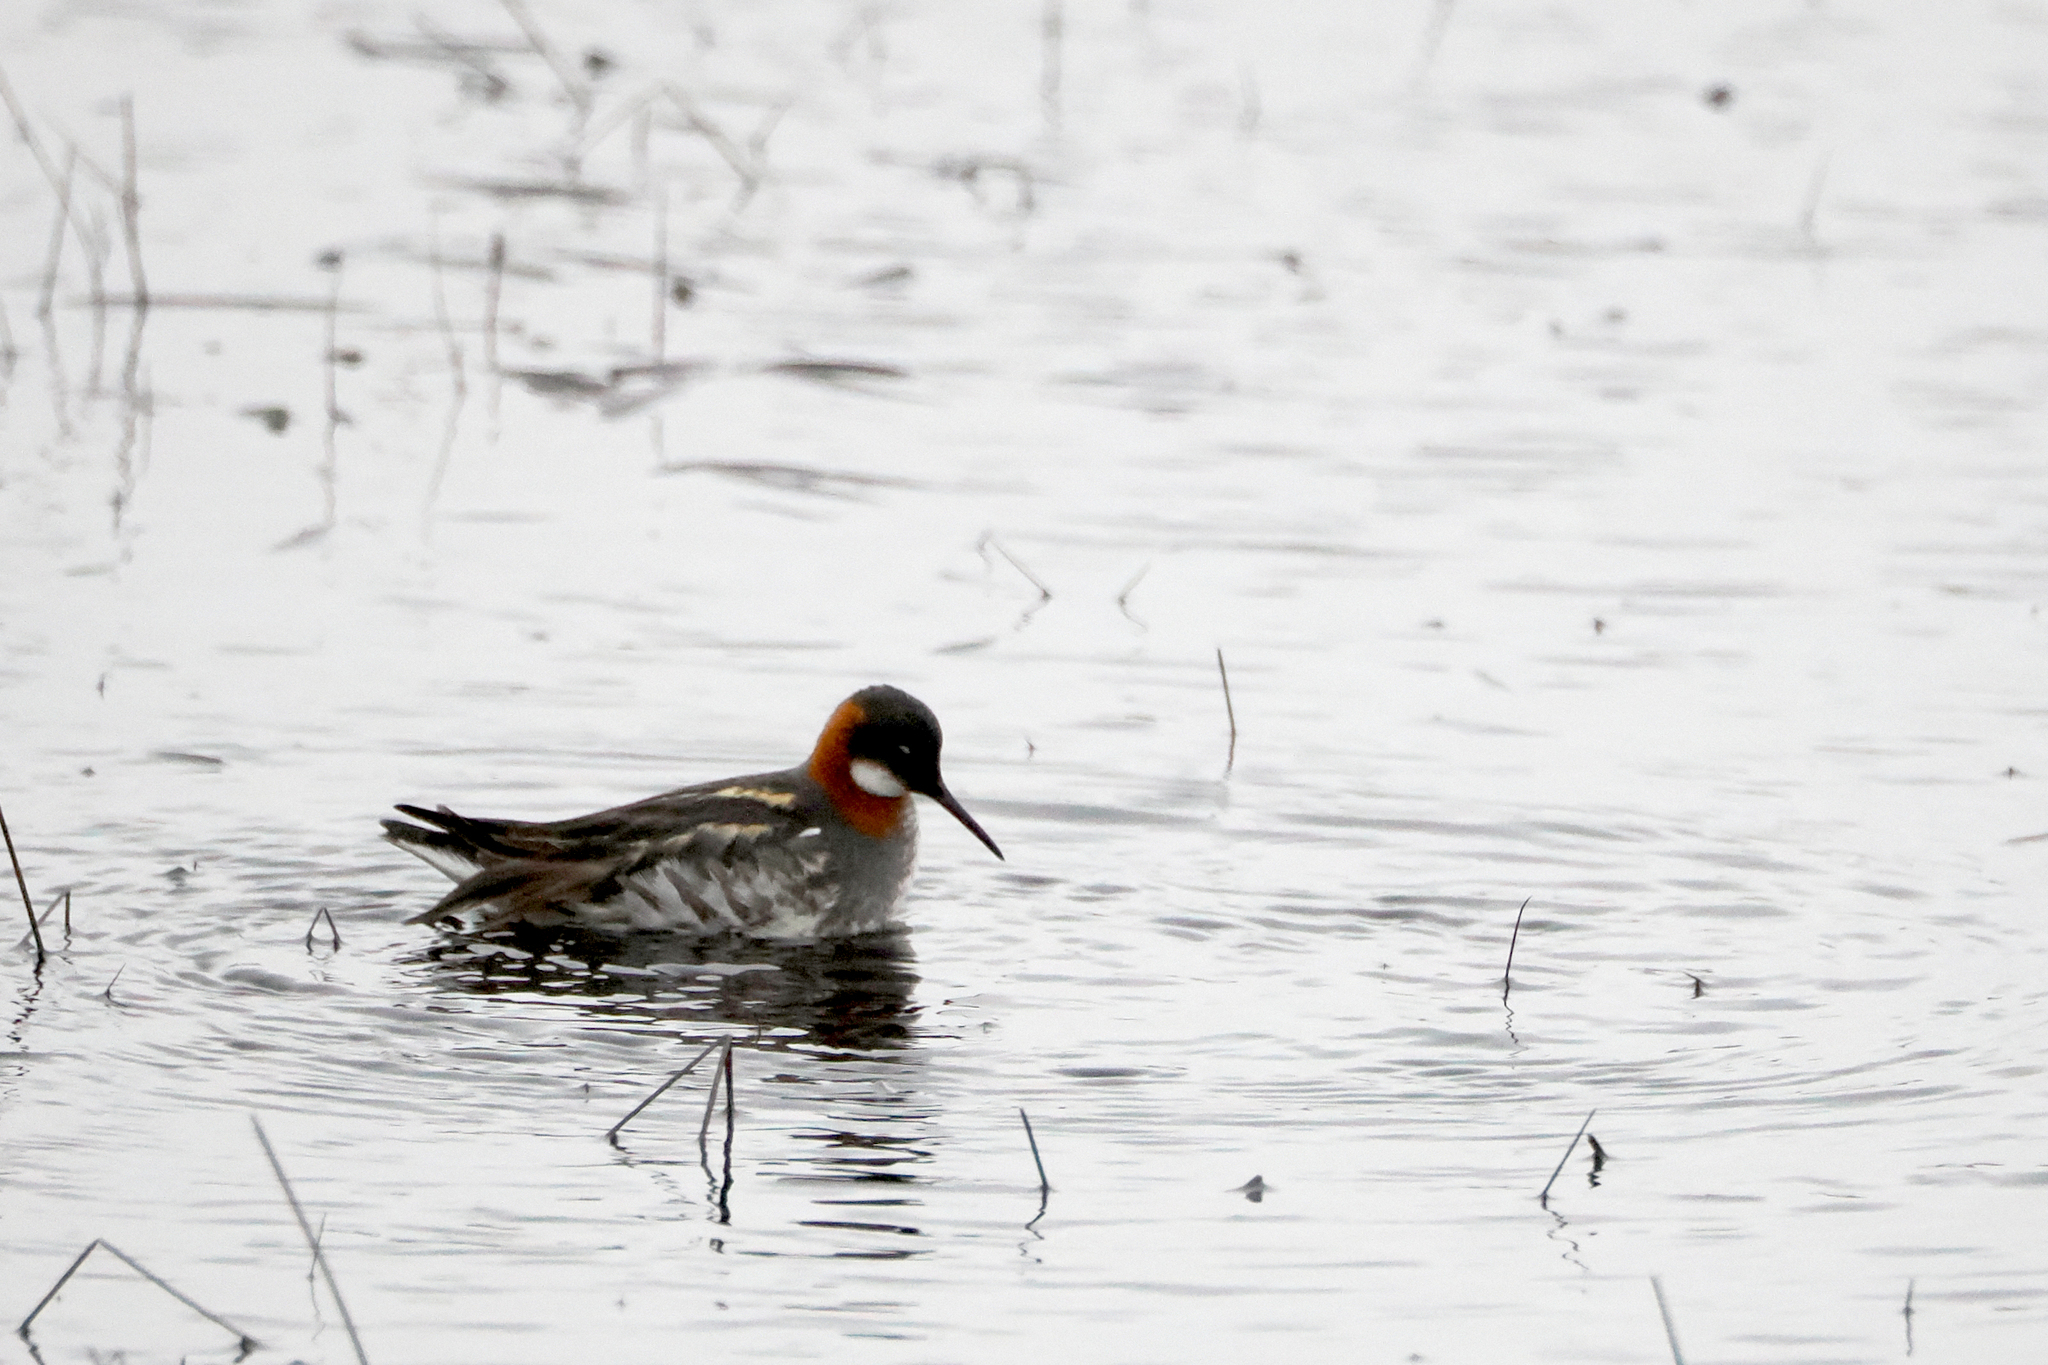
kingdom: Animalia
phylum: Chordata
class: Aves
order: Charadriiformes
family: Scolopacidae
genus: Phalaropus
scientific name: Phalaropus lobatus
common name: Red-necked phalarope
